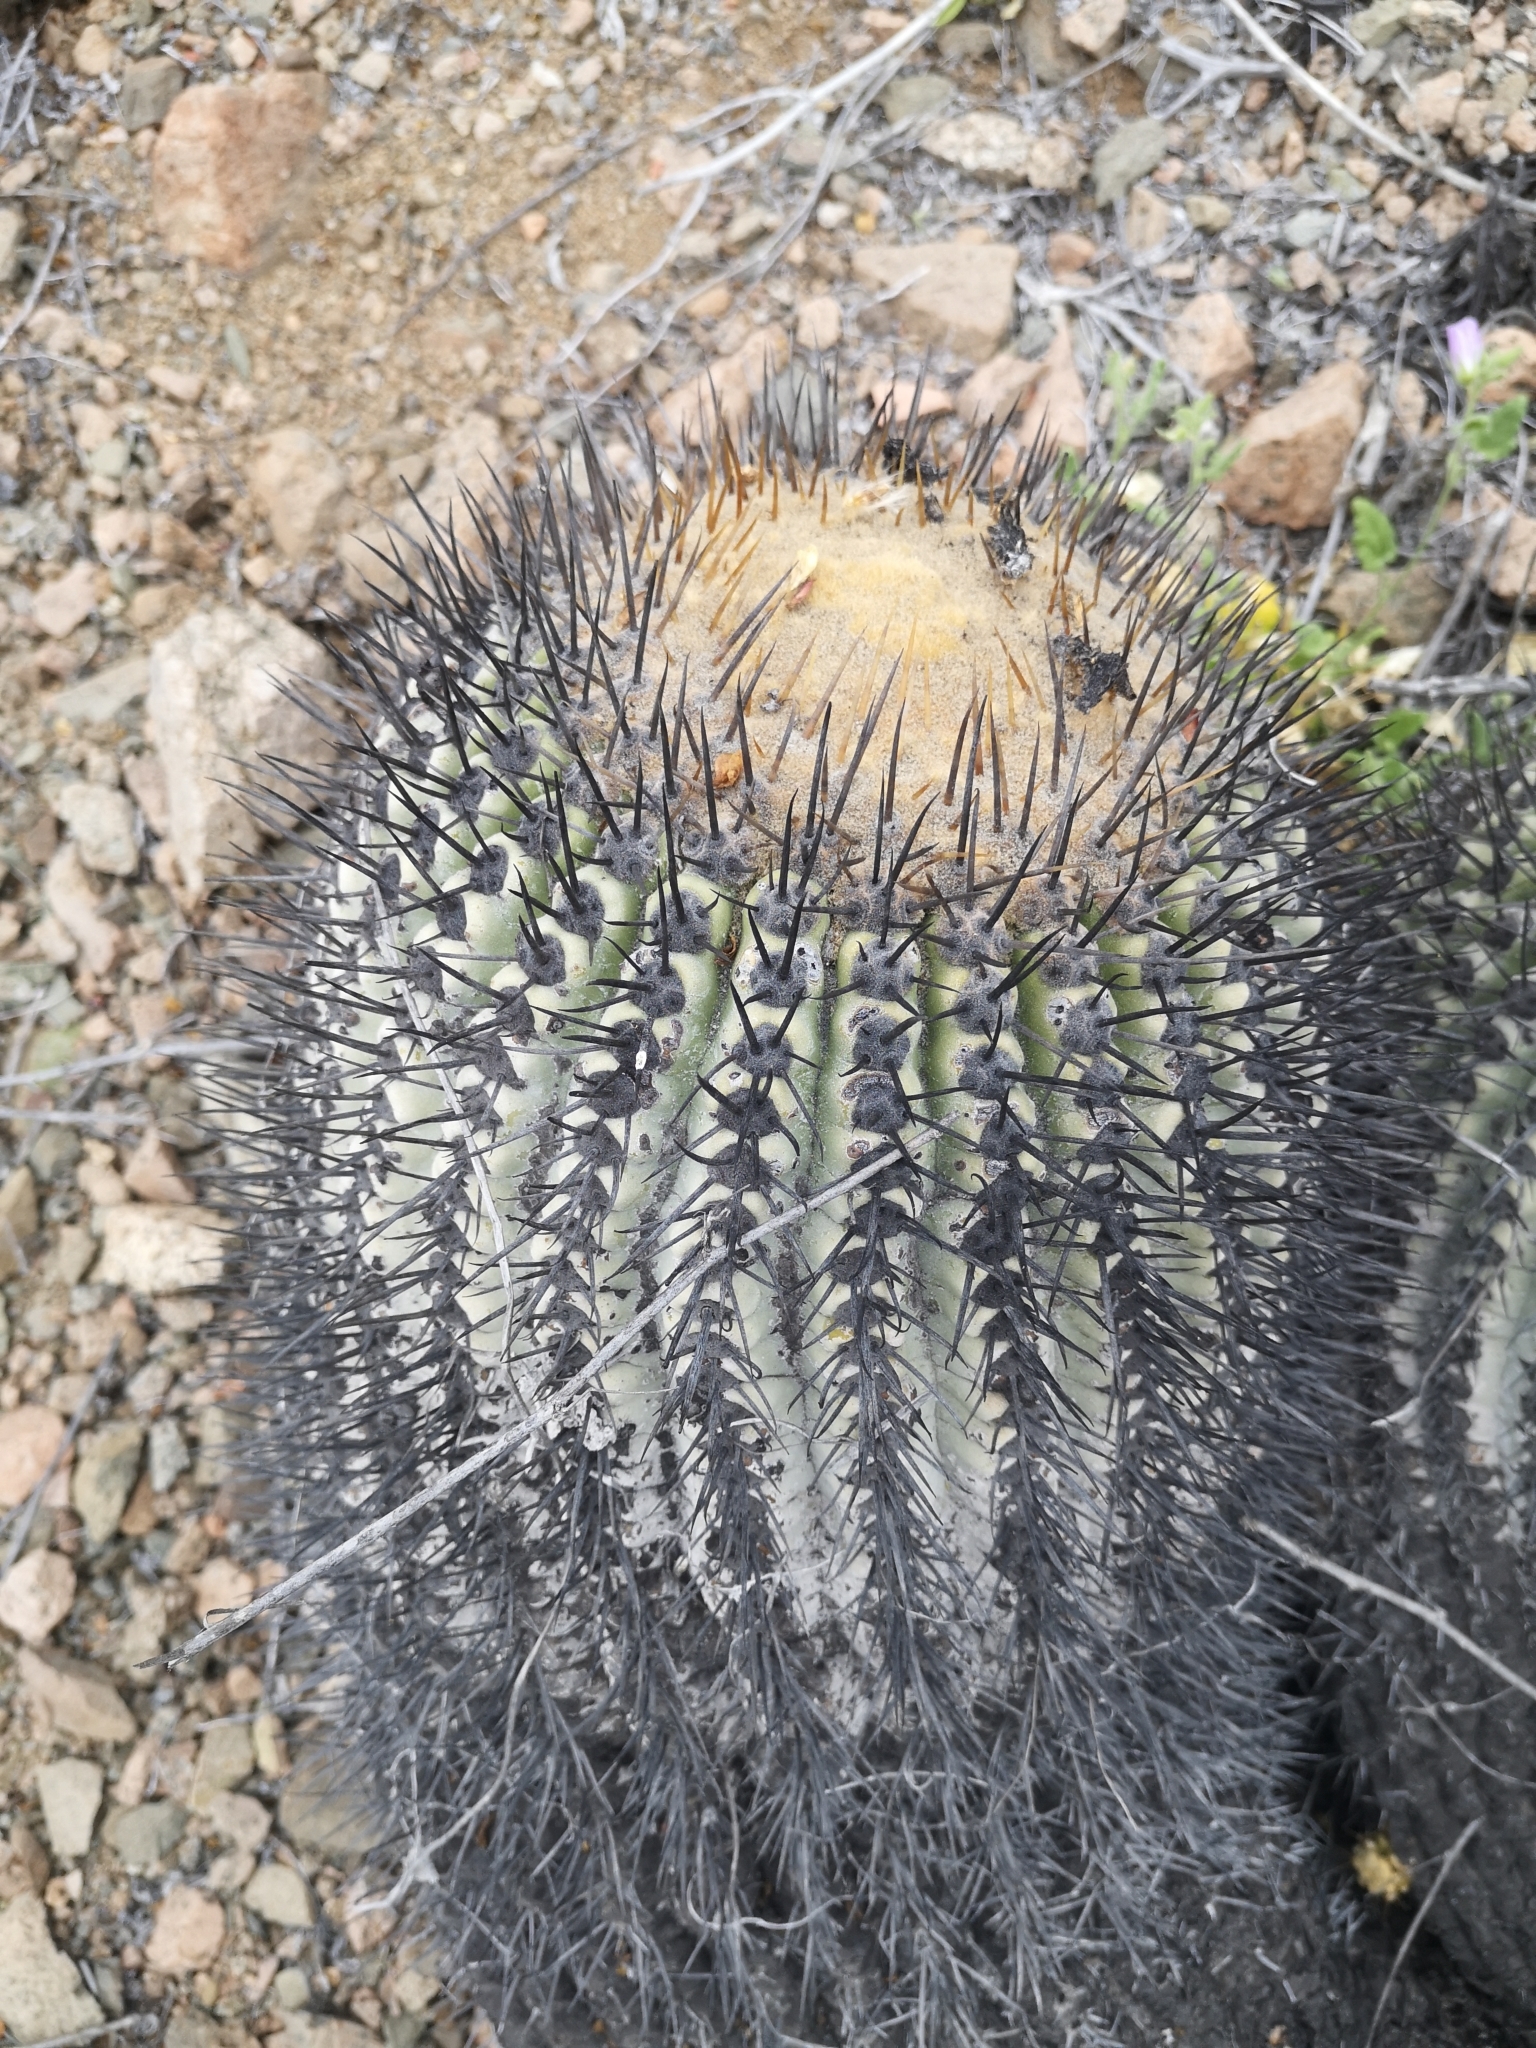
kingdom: Plantae
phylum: Tracheophyta
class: Magnoliopsida
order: Caryophyllales
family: Cactaceae
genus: Copiapoa
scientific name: Copiapoa gigantea
